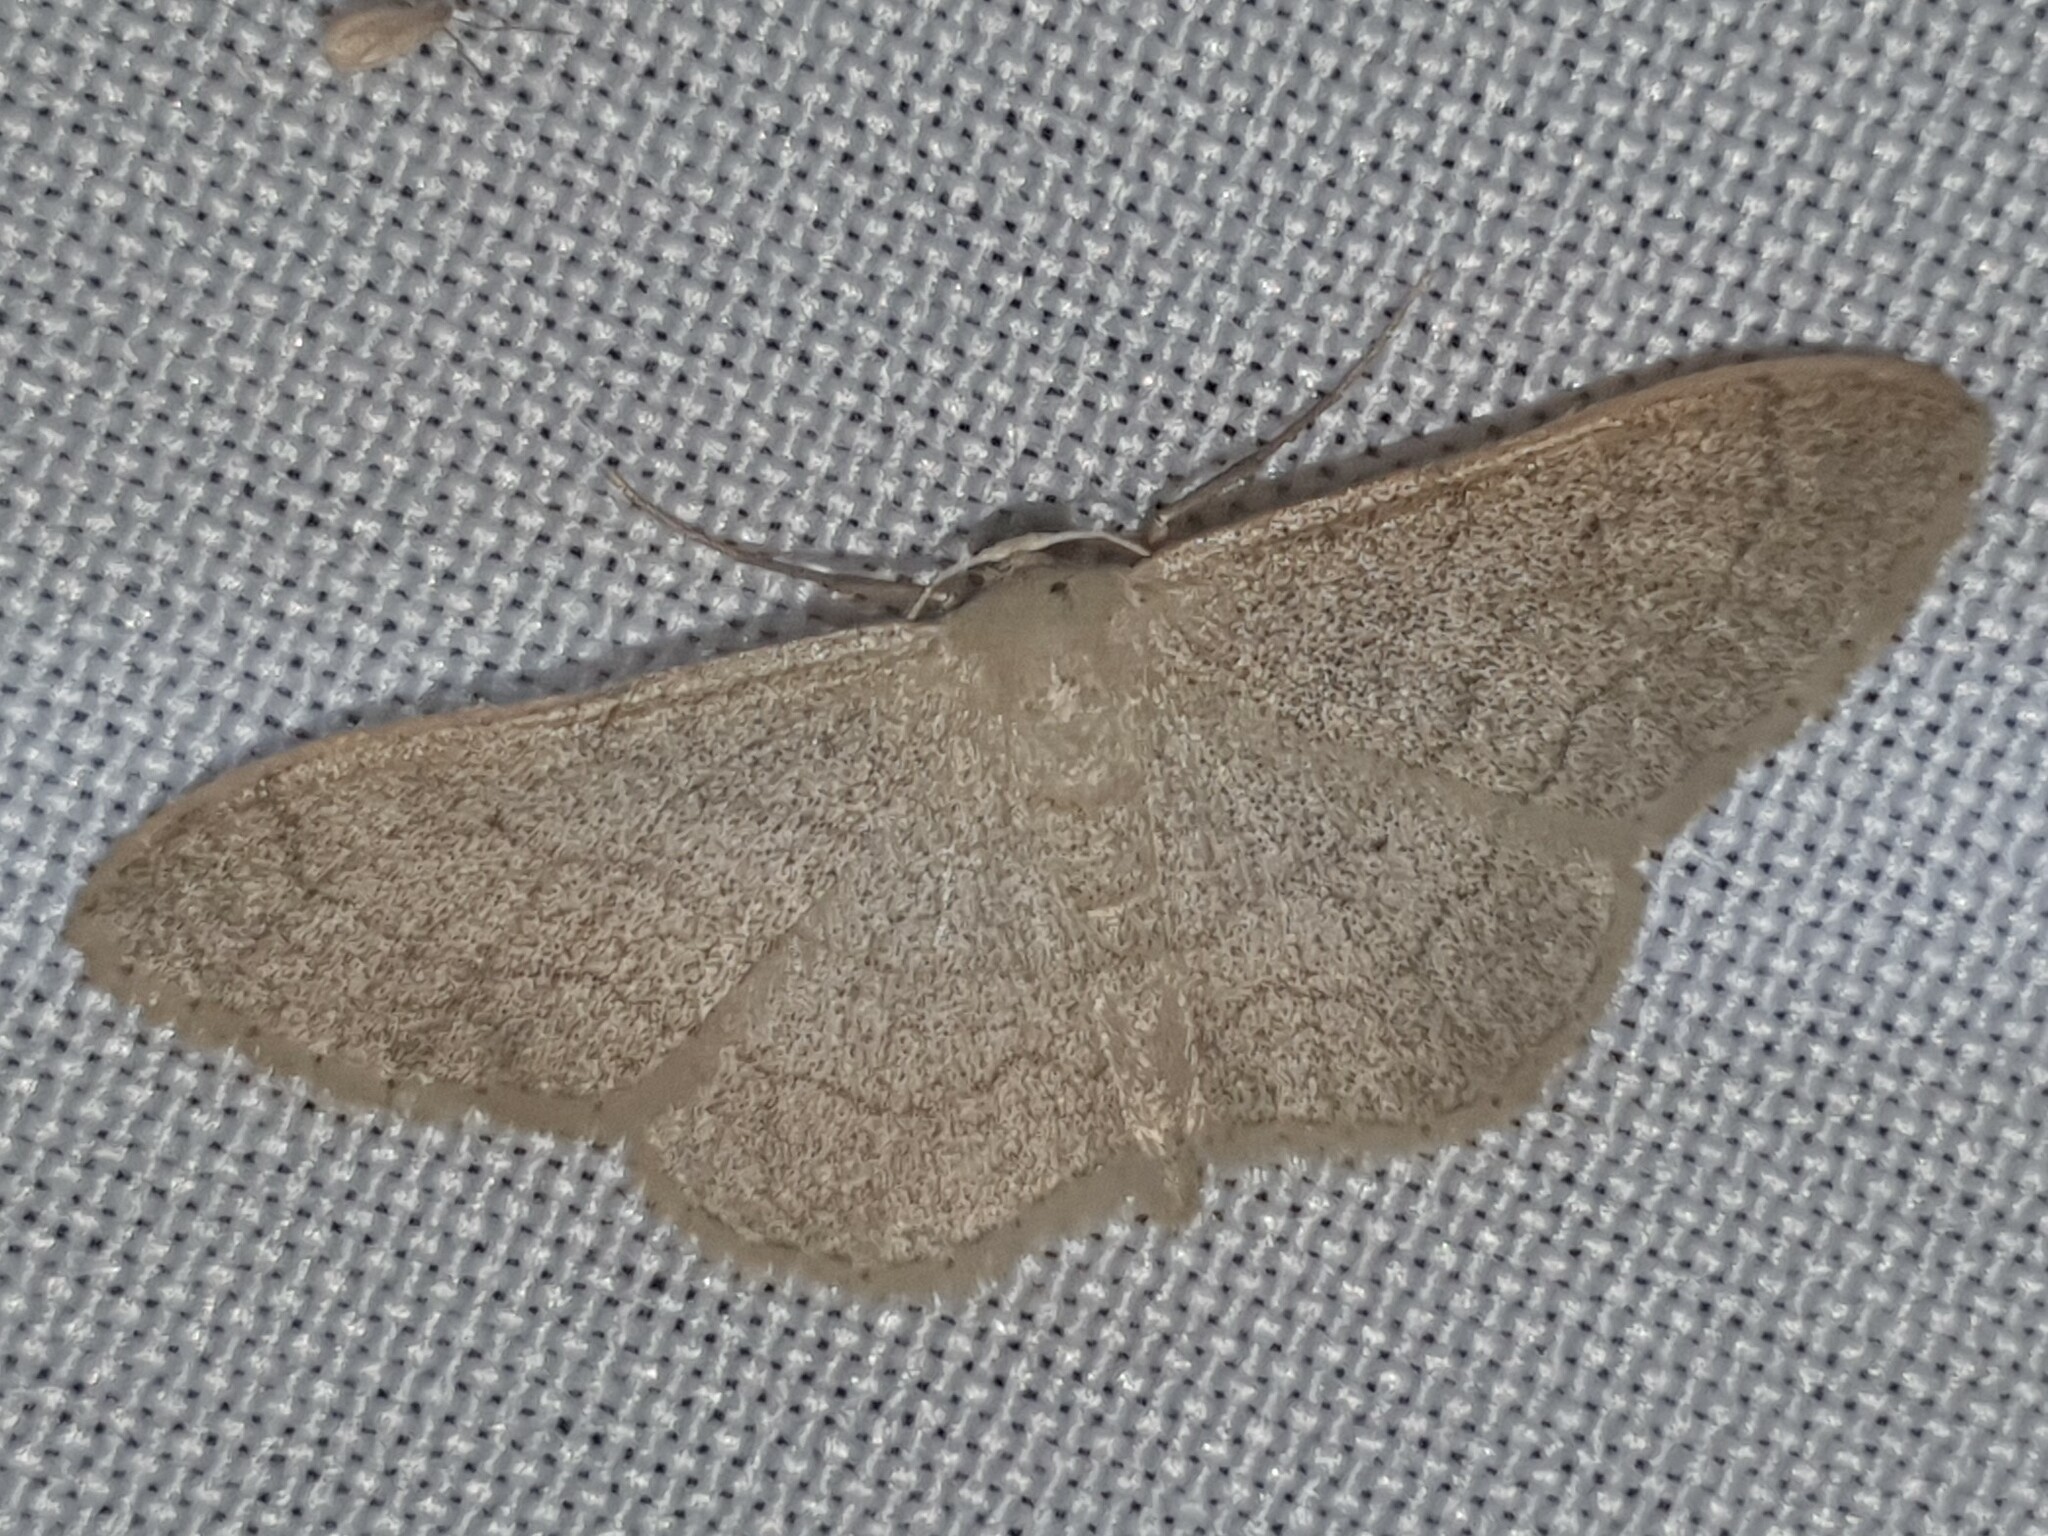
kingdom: Animalia
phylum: Arthropoda
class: Insecta
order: Lepidoptera
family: Geometridae
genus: Idaea
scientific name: Idaea aversata
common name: Riband wave
